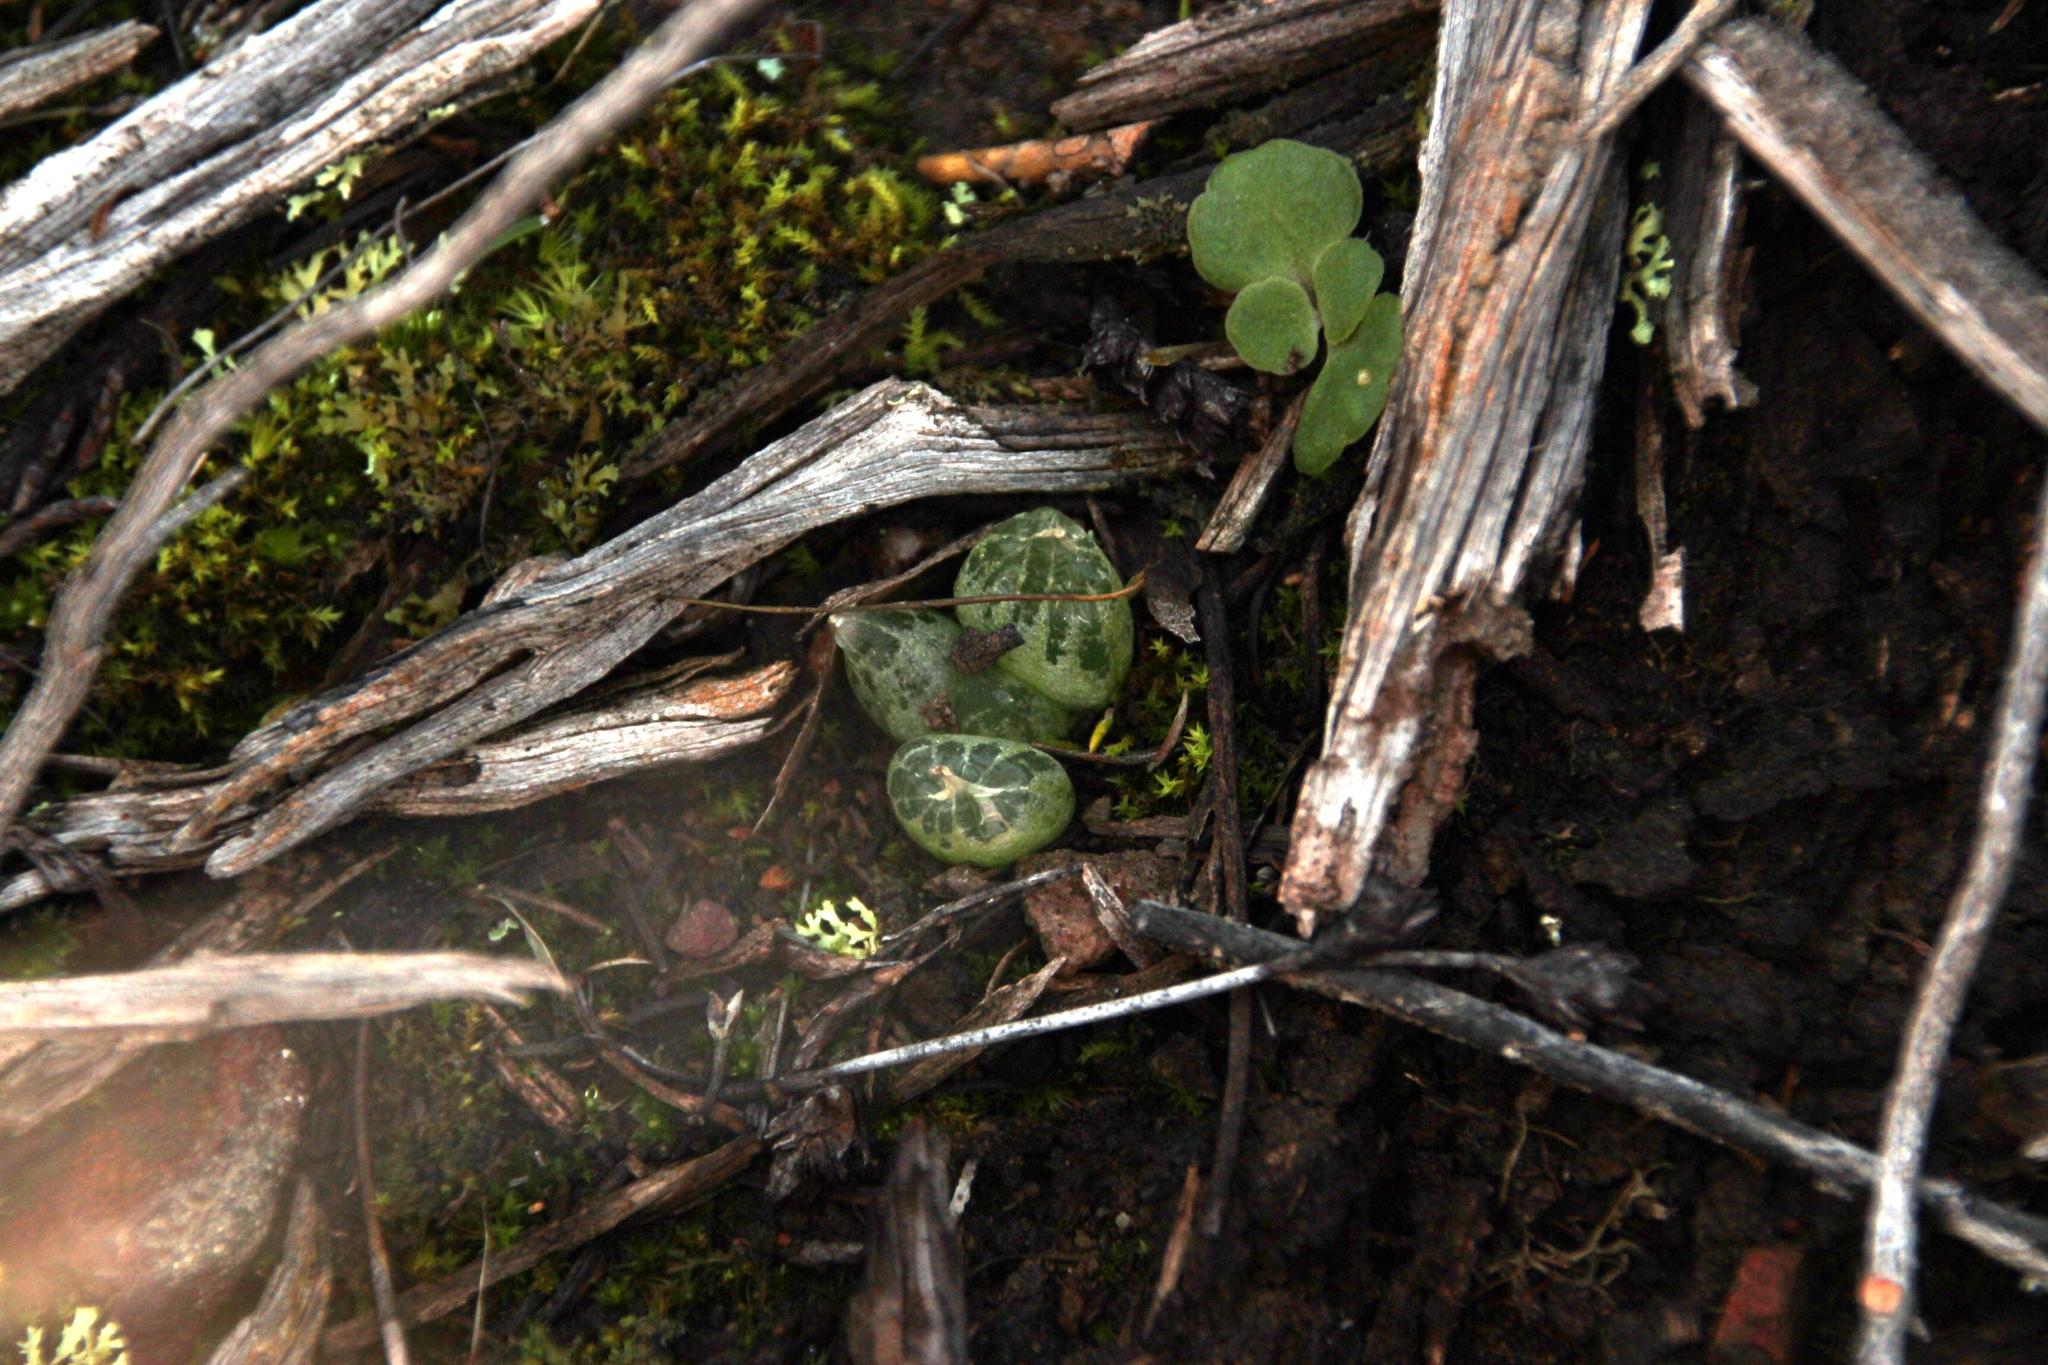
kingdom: Plantae
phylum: Tracheophyta
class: Liliopsida
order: Asparagales
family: Asphodelaceae
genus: Bulbine
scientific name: Bulbine mesembryanthoides
